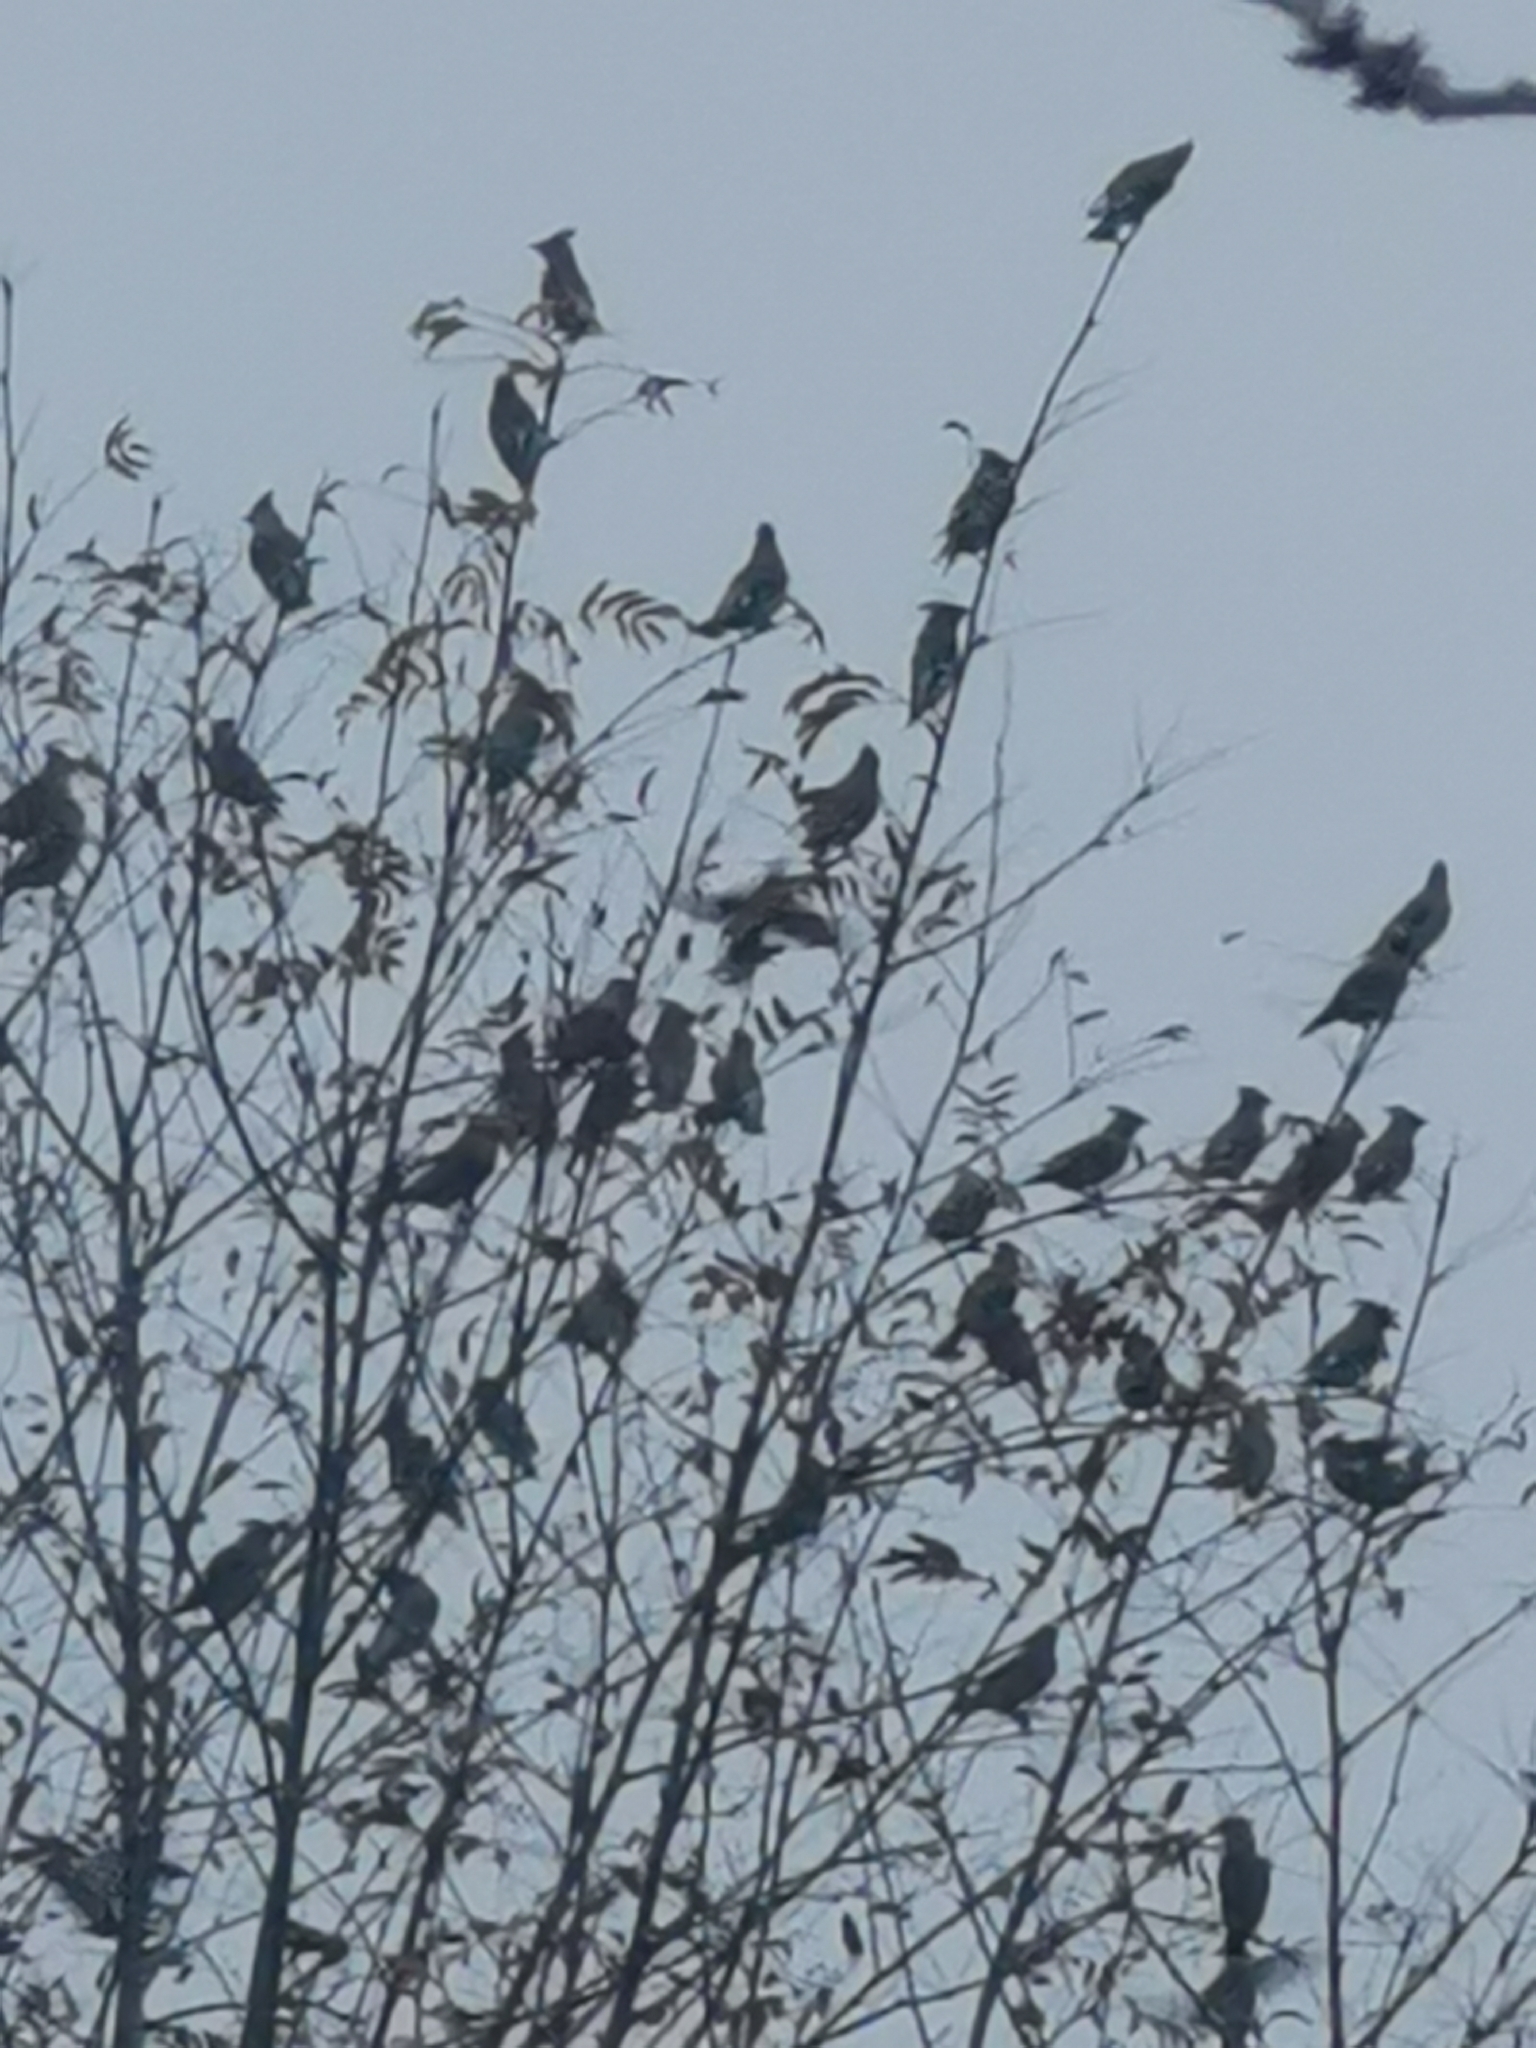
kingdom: Animalia
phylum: Chordata
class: Aves
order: Passeriformes
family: Bombycillidae
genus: Bombycilla
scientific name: Bombycilla garrulus
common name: Bohemian waxwing
